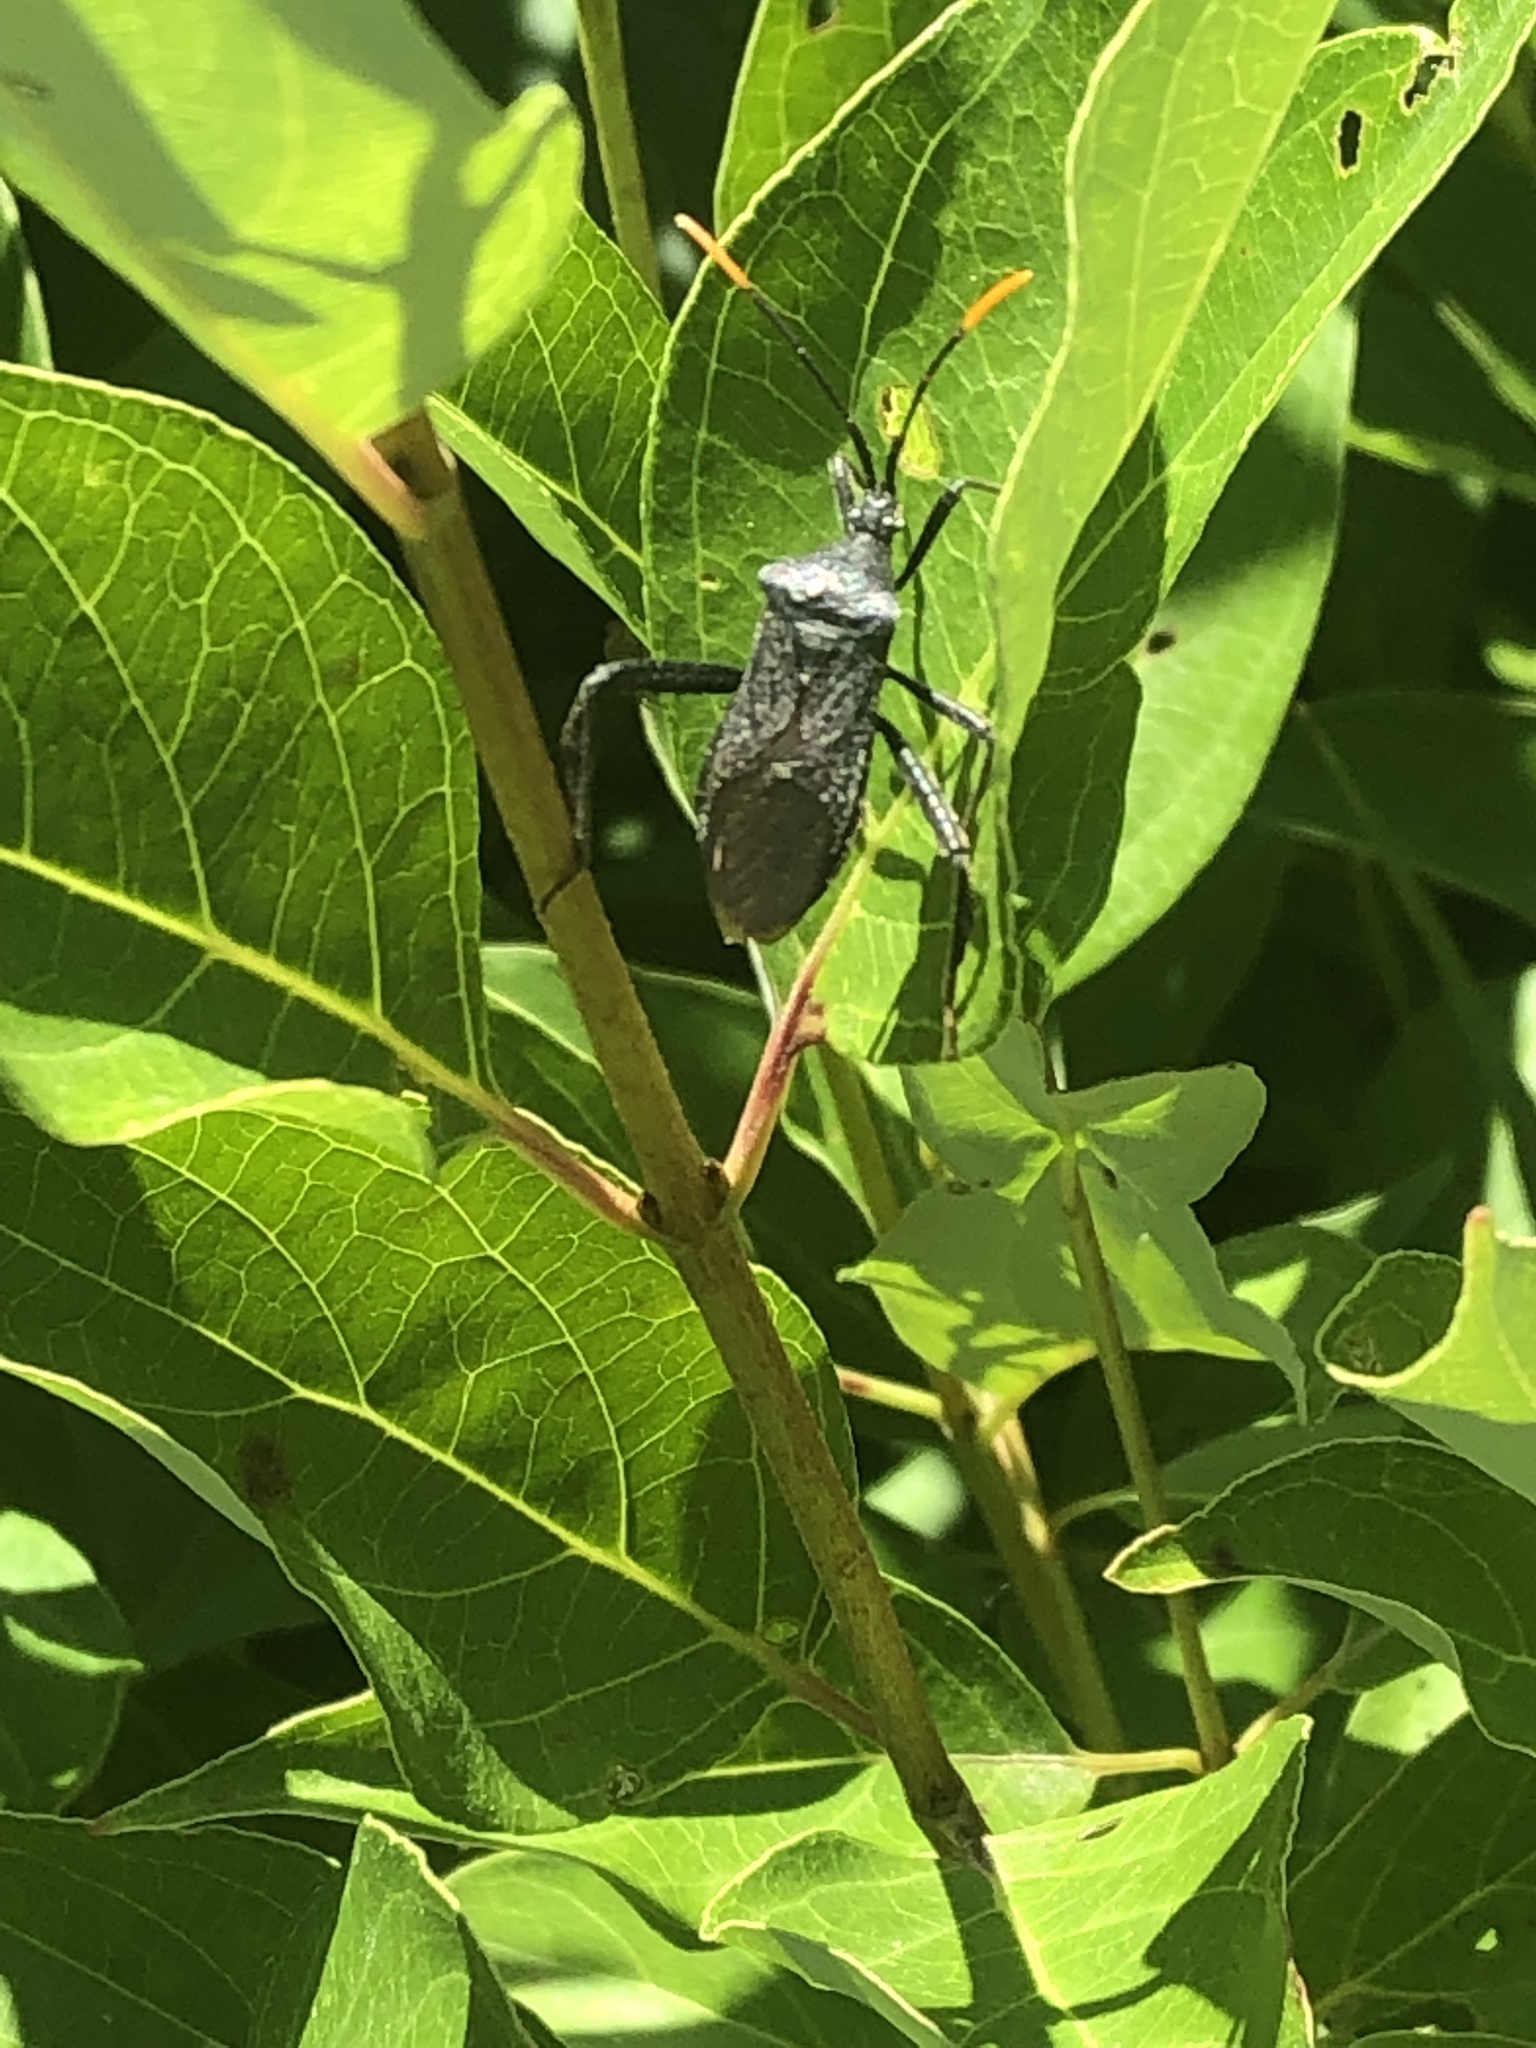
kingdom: Animalia
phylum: Arthropoda
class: Insecta
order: Hemiptera
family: Coreidae
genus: Acanthocephala
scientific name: Acanthocephala terminalis
